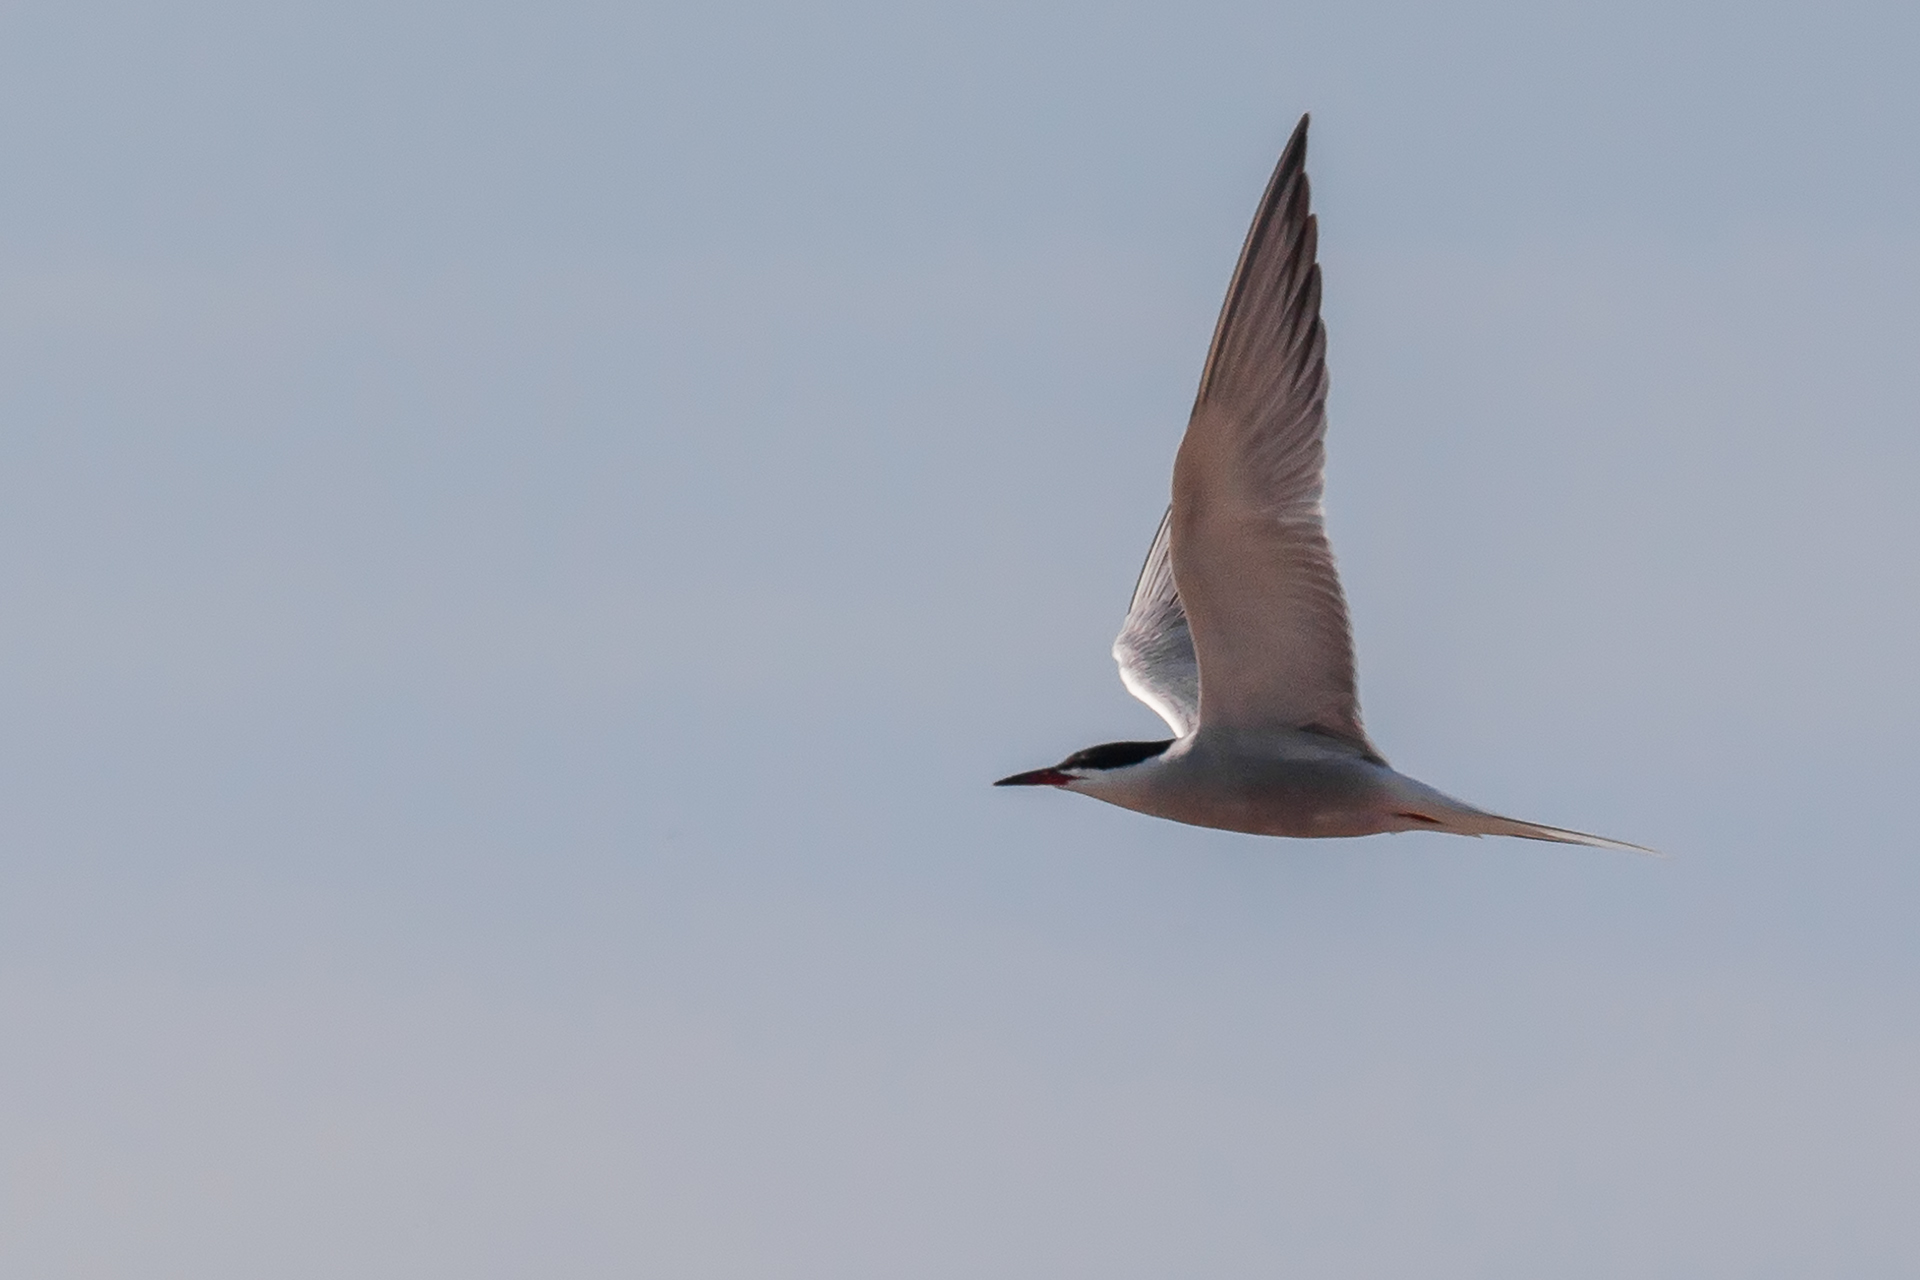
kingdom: Animalia
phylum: Chordata
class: Aves
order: Charadriiformes
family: Laridae
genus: Sterna
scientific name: Sterna hirundo
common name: Common tern
